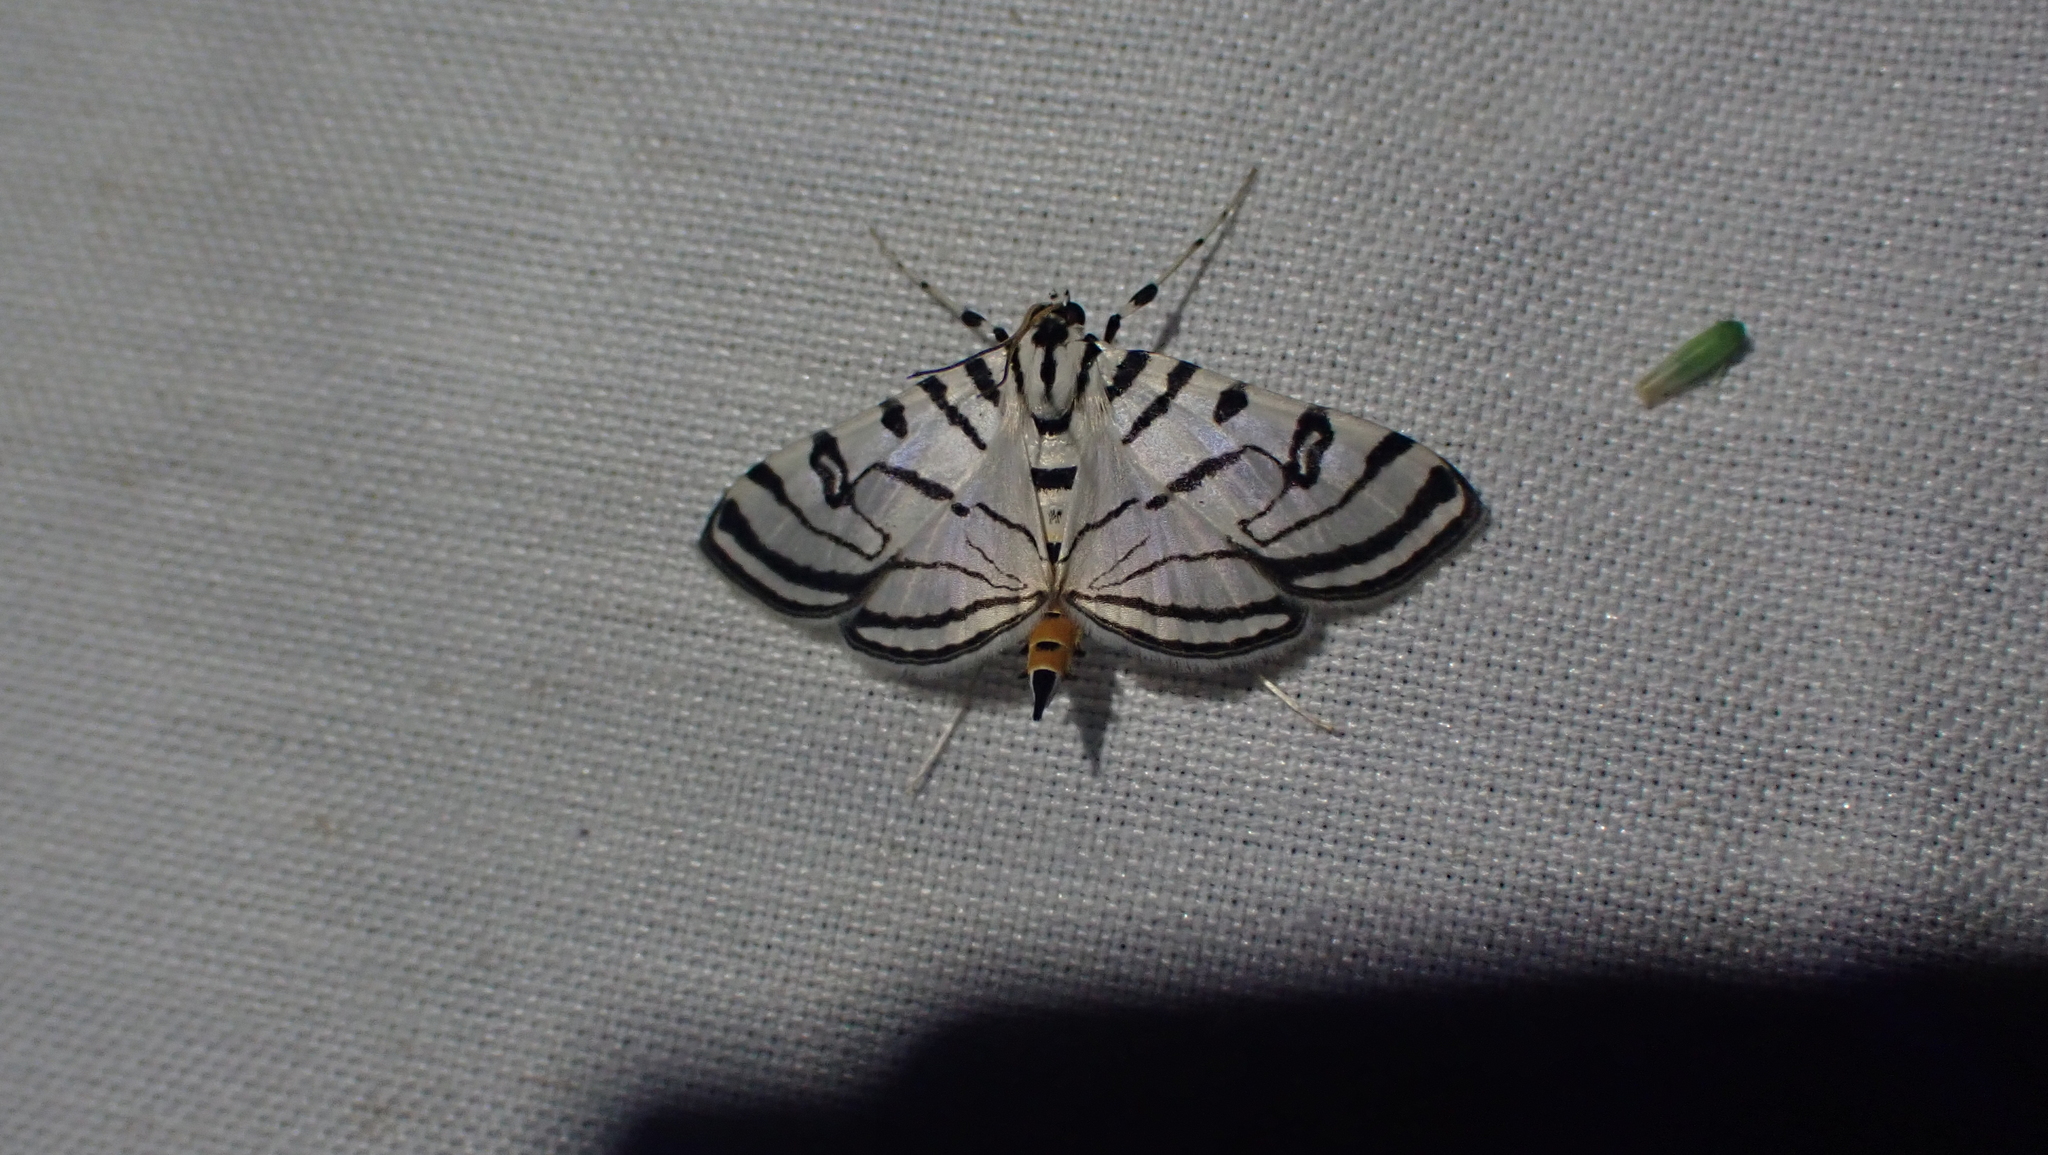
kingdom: Animalia
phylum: Arthropoda
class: Insecta
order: Lepidoptera
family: Crambidae
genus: Conchylodes
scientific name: Conchylodes ovulalis
